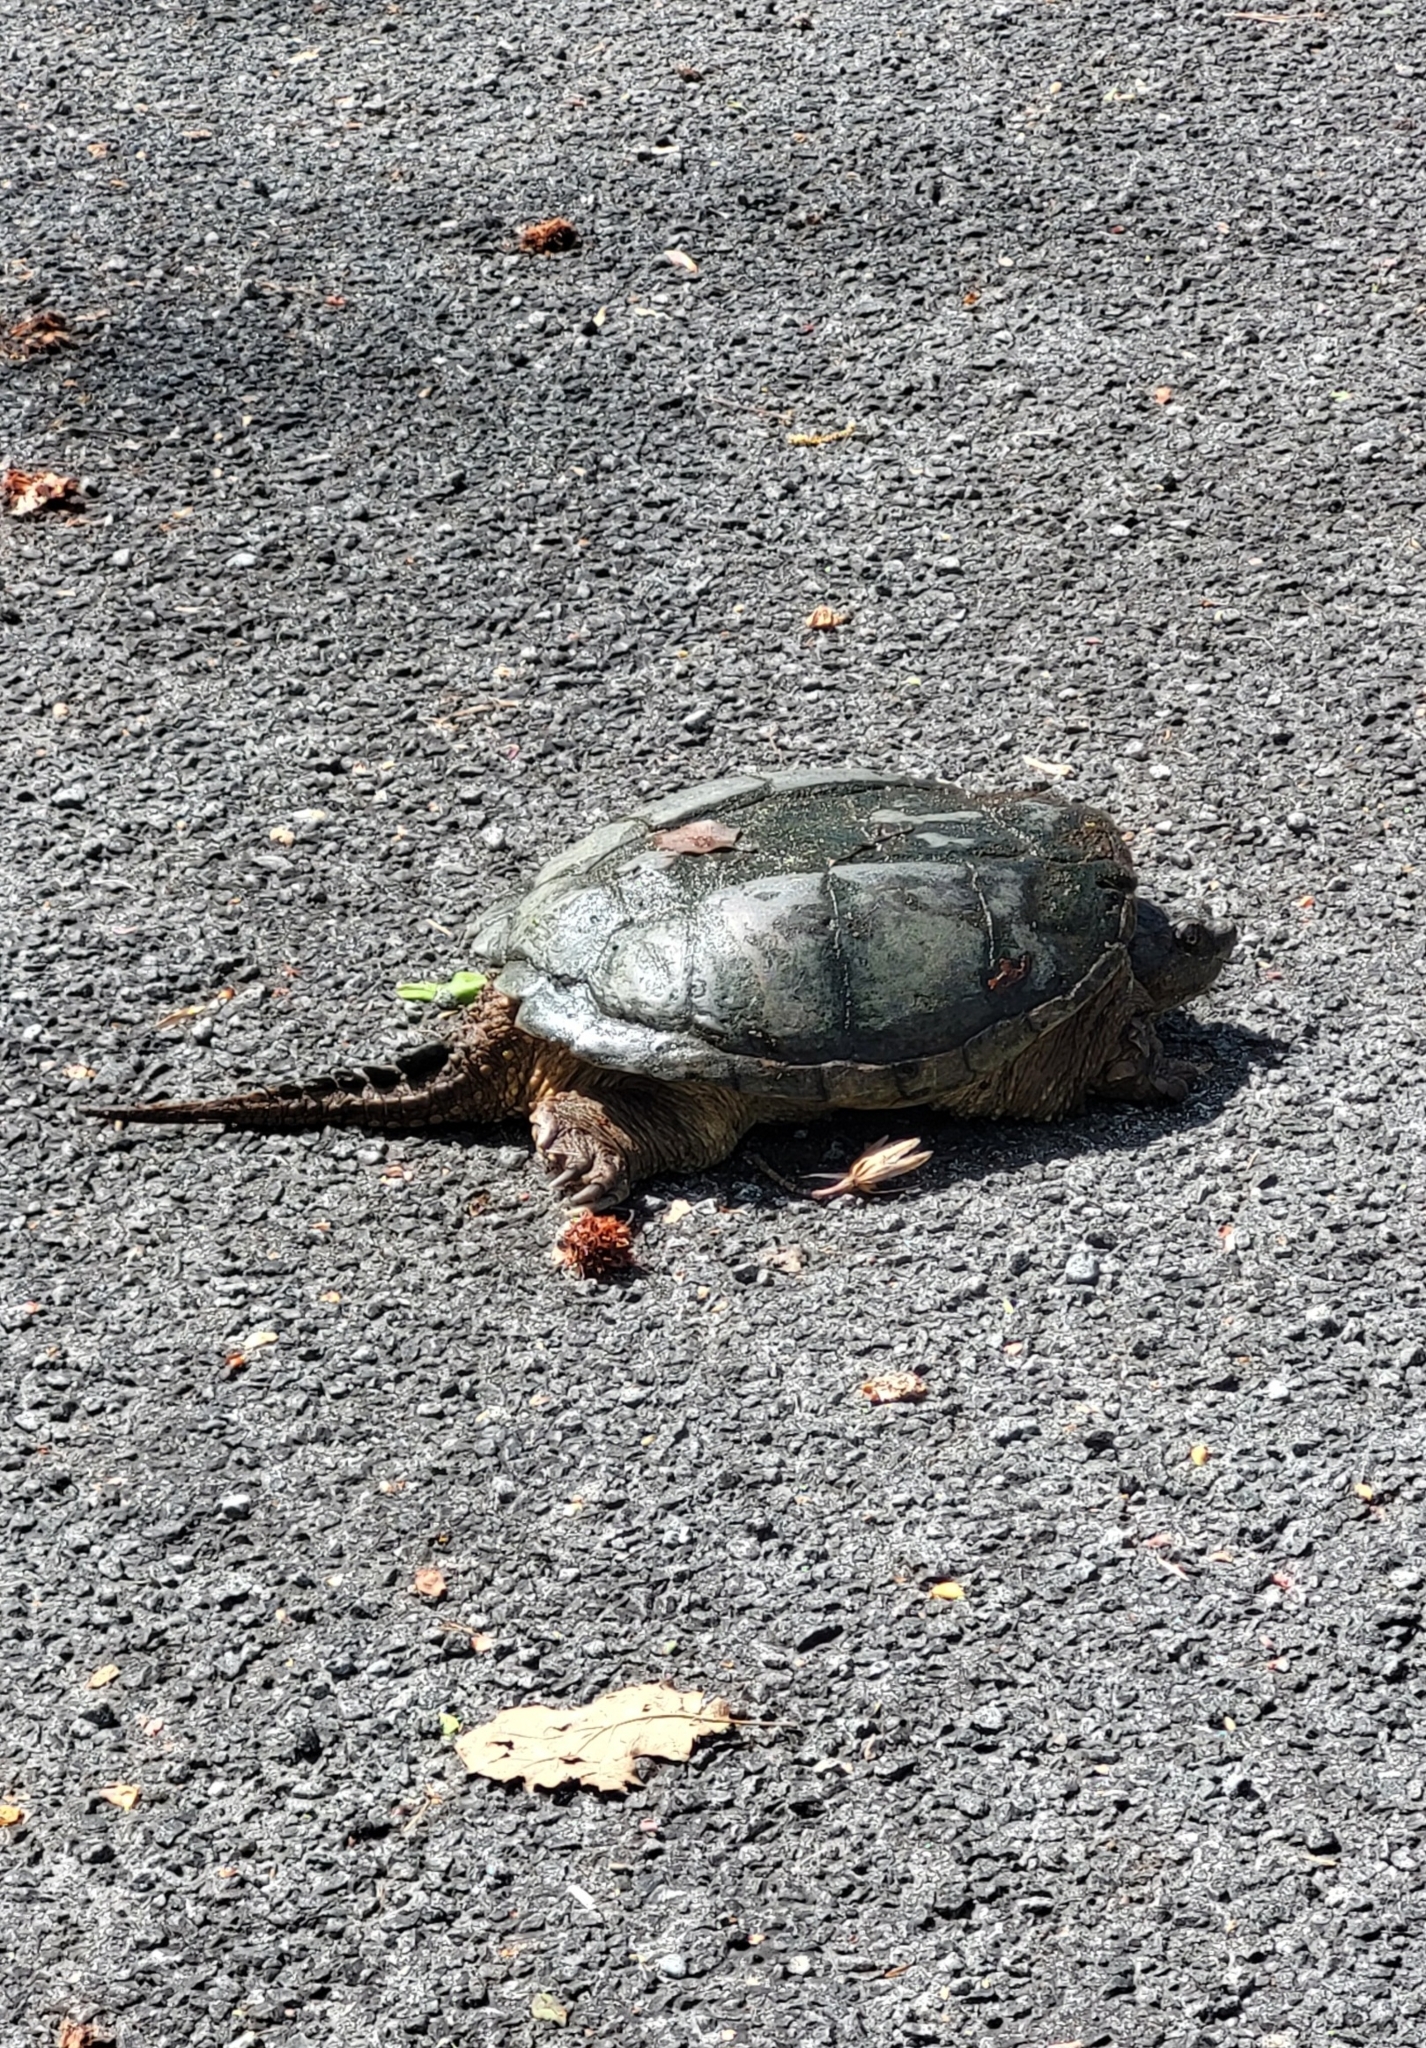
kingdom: Animalia
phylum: Chordata
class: Testudines
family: Chelydridae
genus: Chelydra
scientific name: Chelydra serpentina
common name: Common snapping turtle
